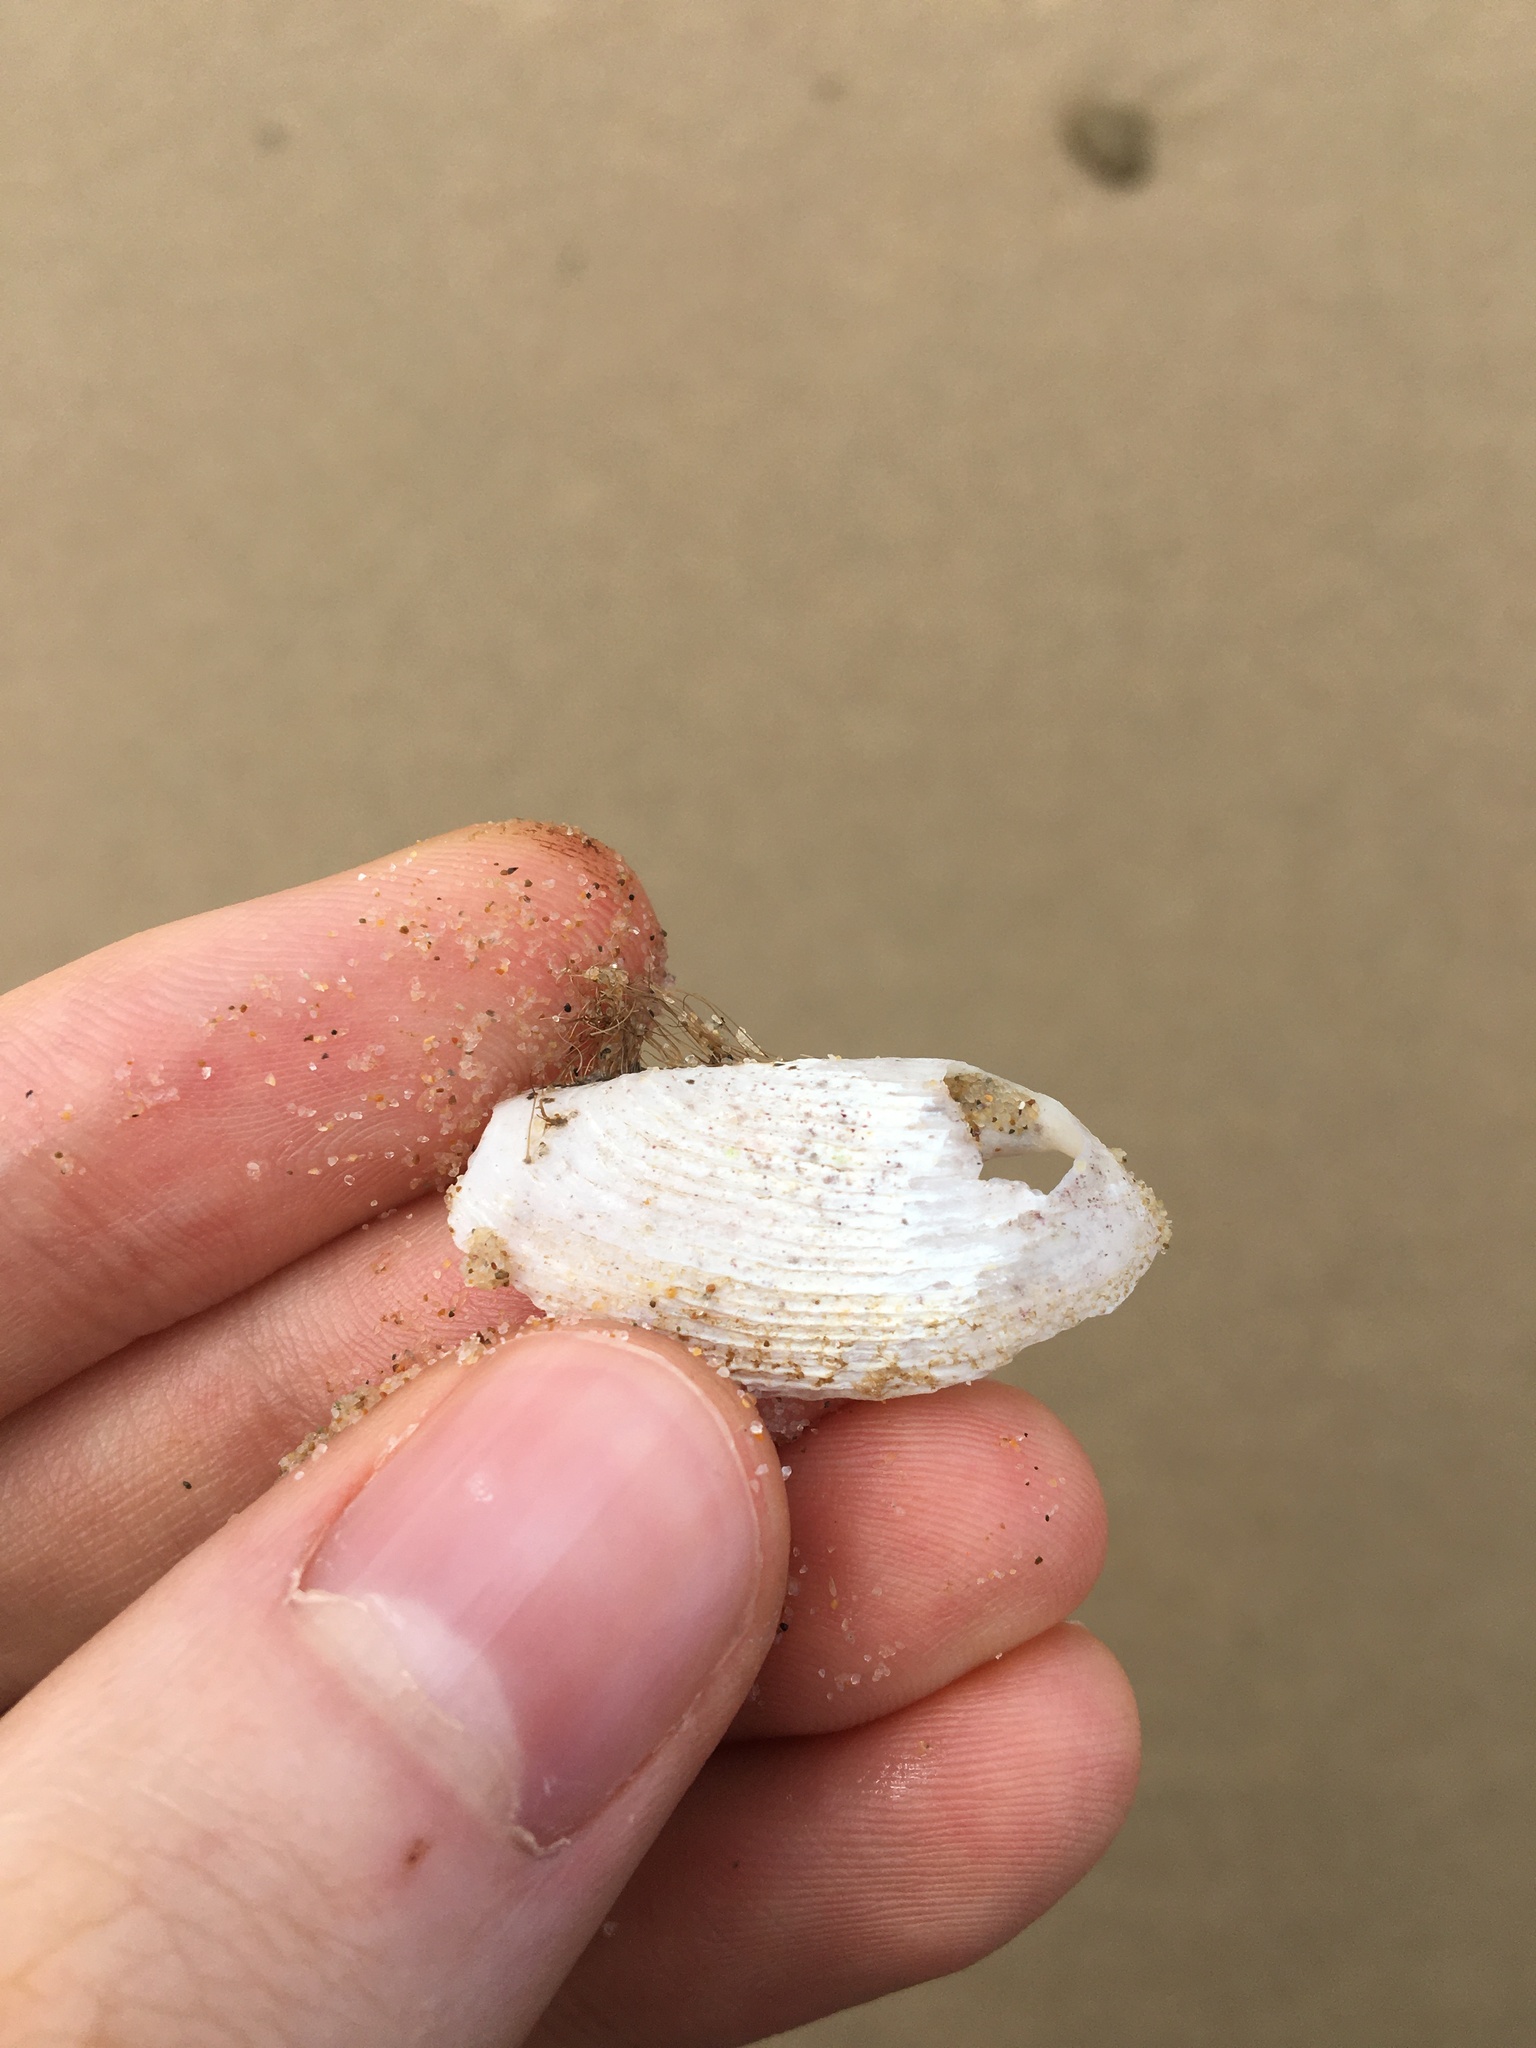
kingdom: Animalia
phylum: Mollusca
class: Bivalvia
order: Myida
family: Pholadidae
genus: Barnea
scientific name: Barnea australasiae
